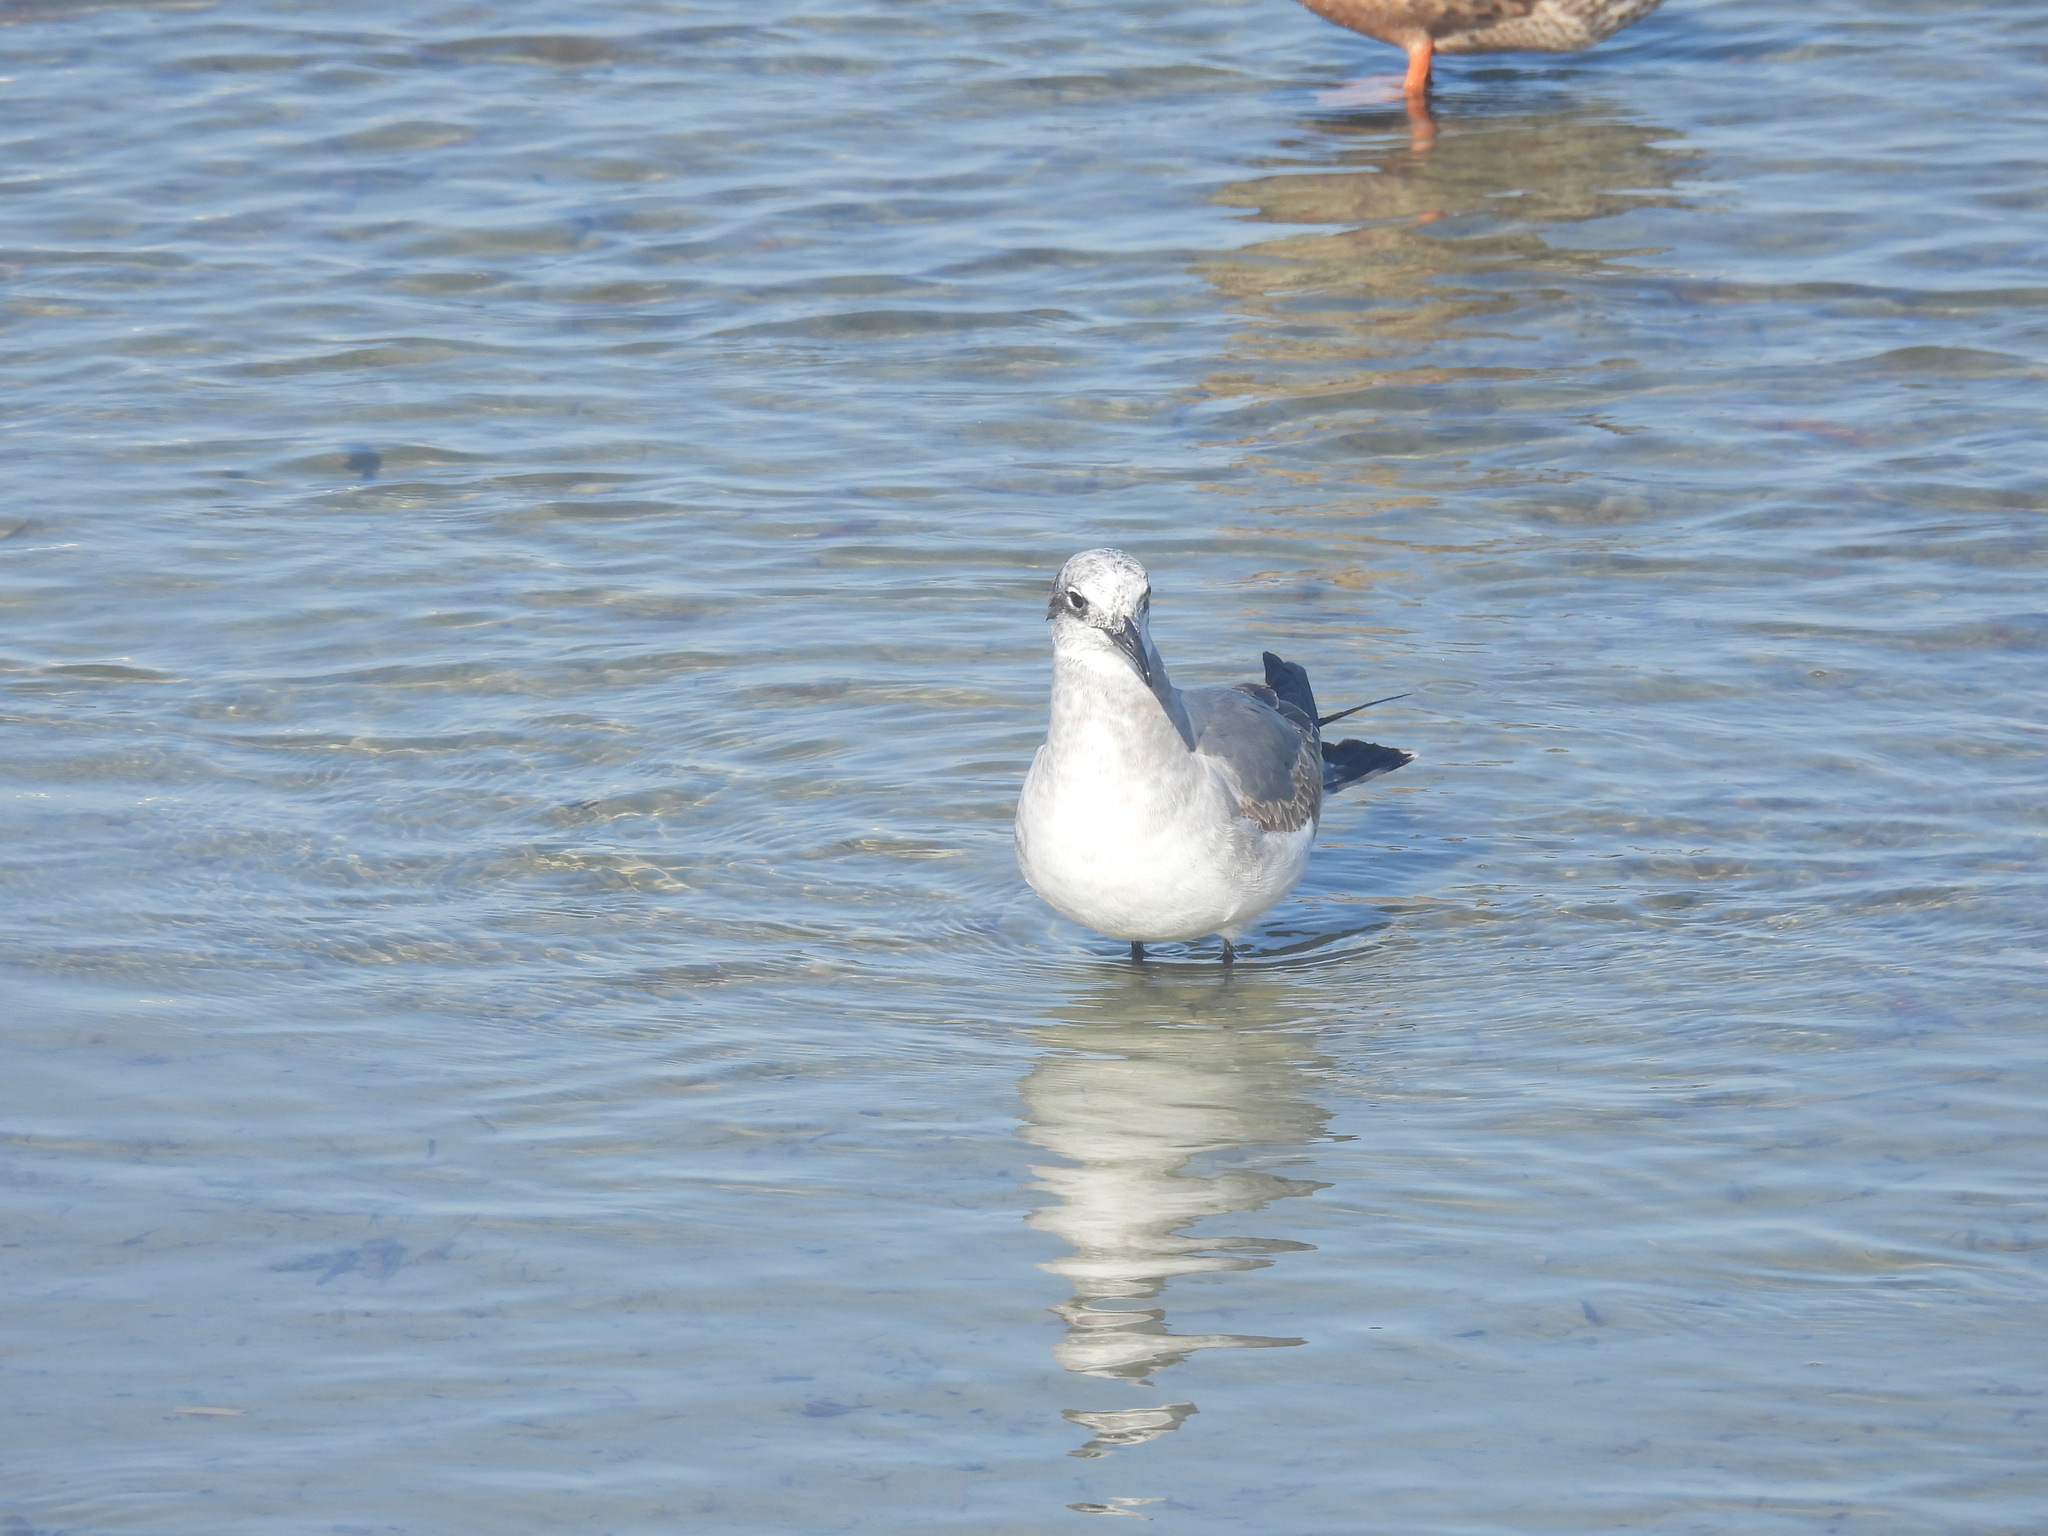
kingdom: Animalia
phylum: Chordata
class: Aves
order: Charadriiformes
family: Laridae
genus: Leucophaeus
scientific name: Leucophaeus atricilla
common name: Laughing gull
